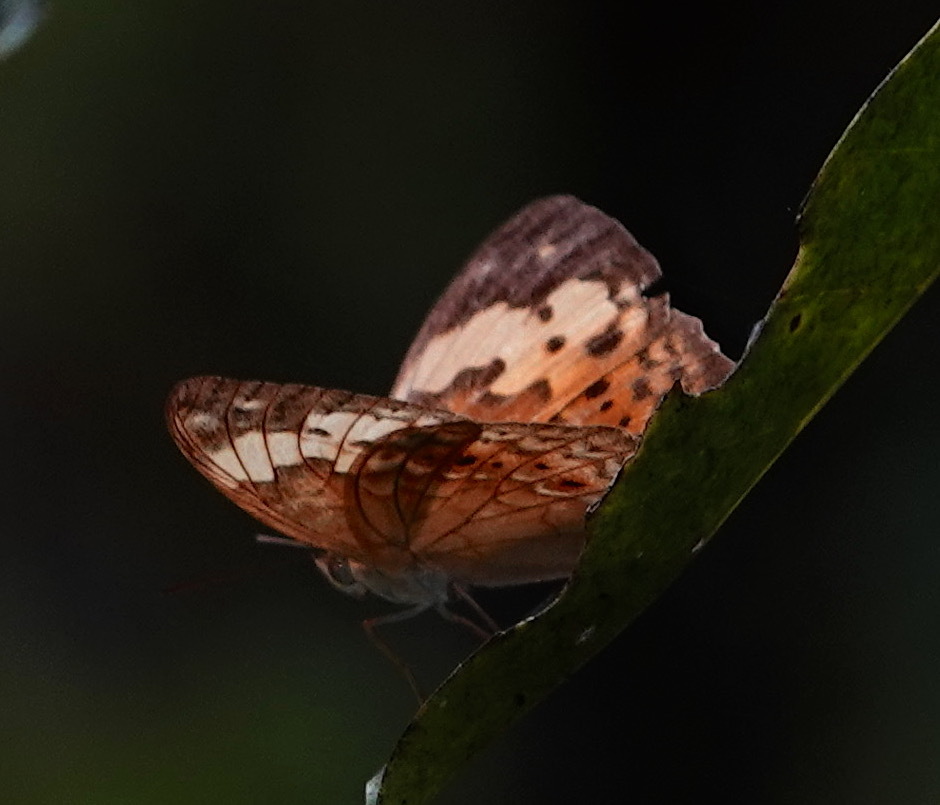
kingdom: Animalia
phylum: Arthropoda
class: Insecta
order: Lepidoptera
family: Nymphalidae
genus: Cupha
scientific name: Cupha erymanthis
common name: Rustic
